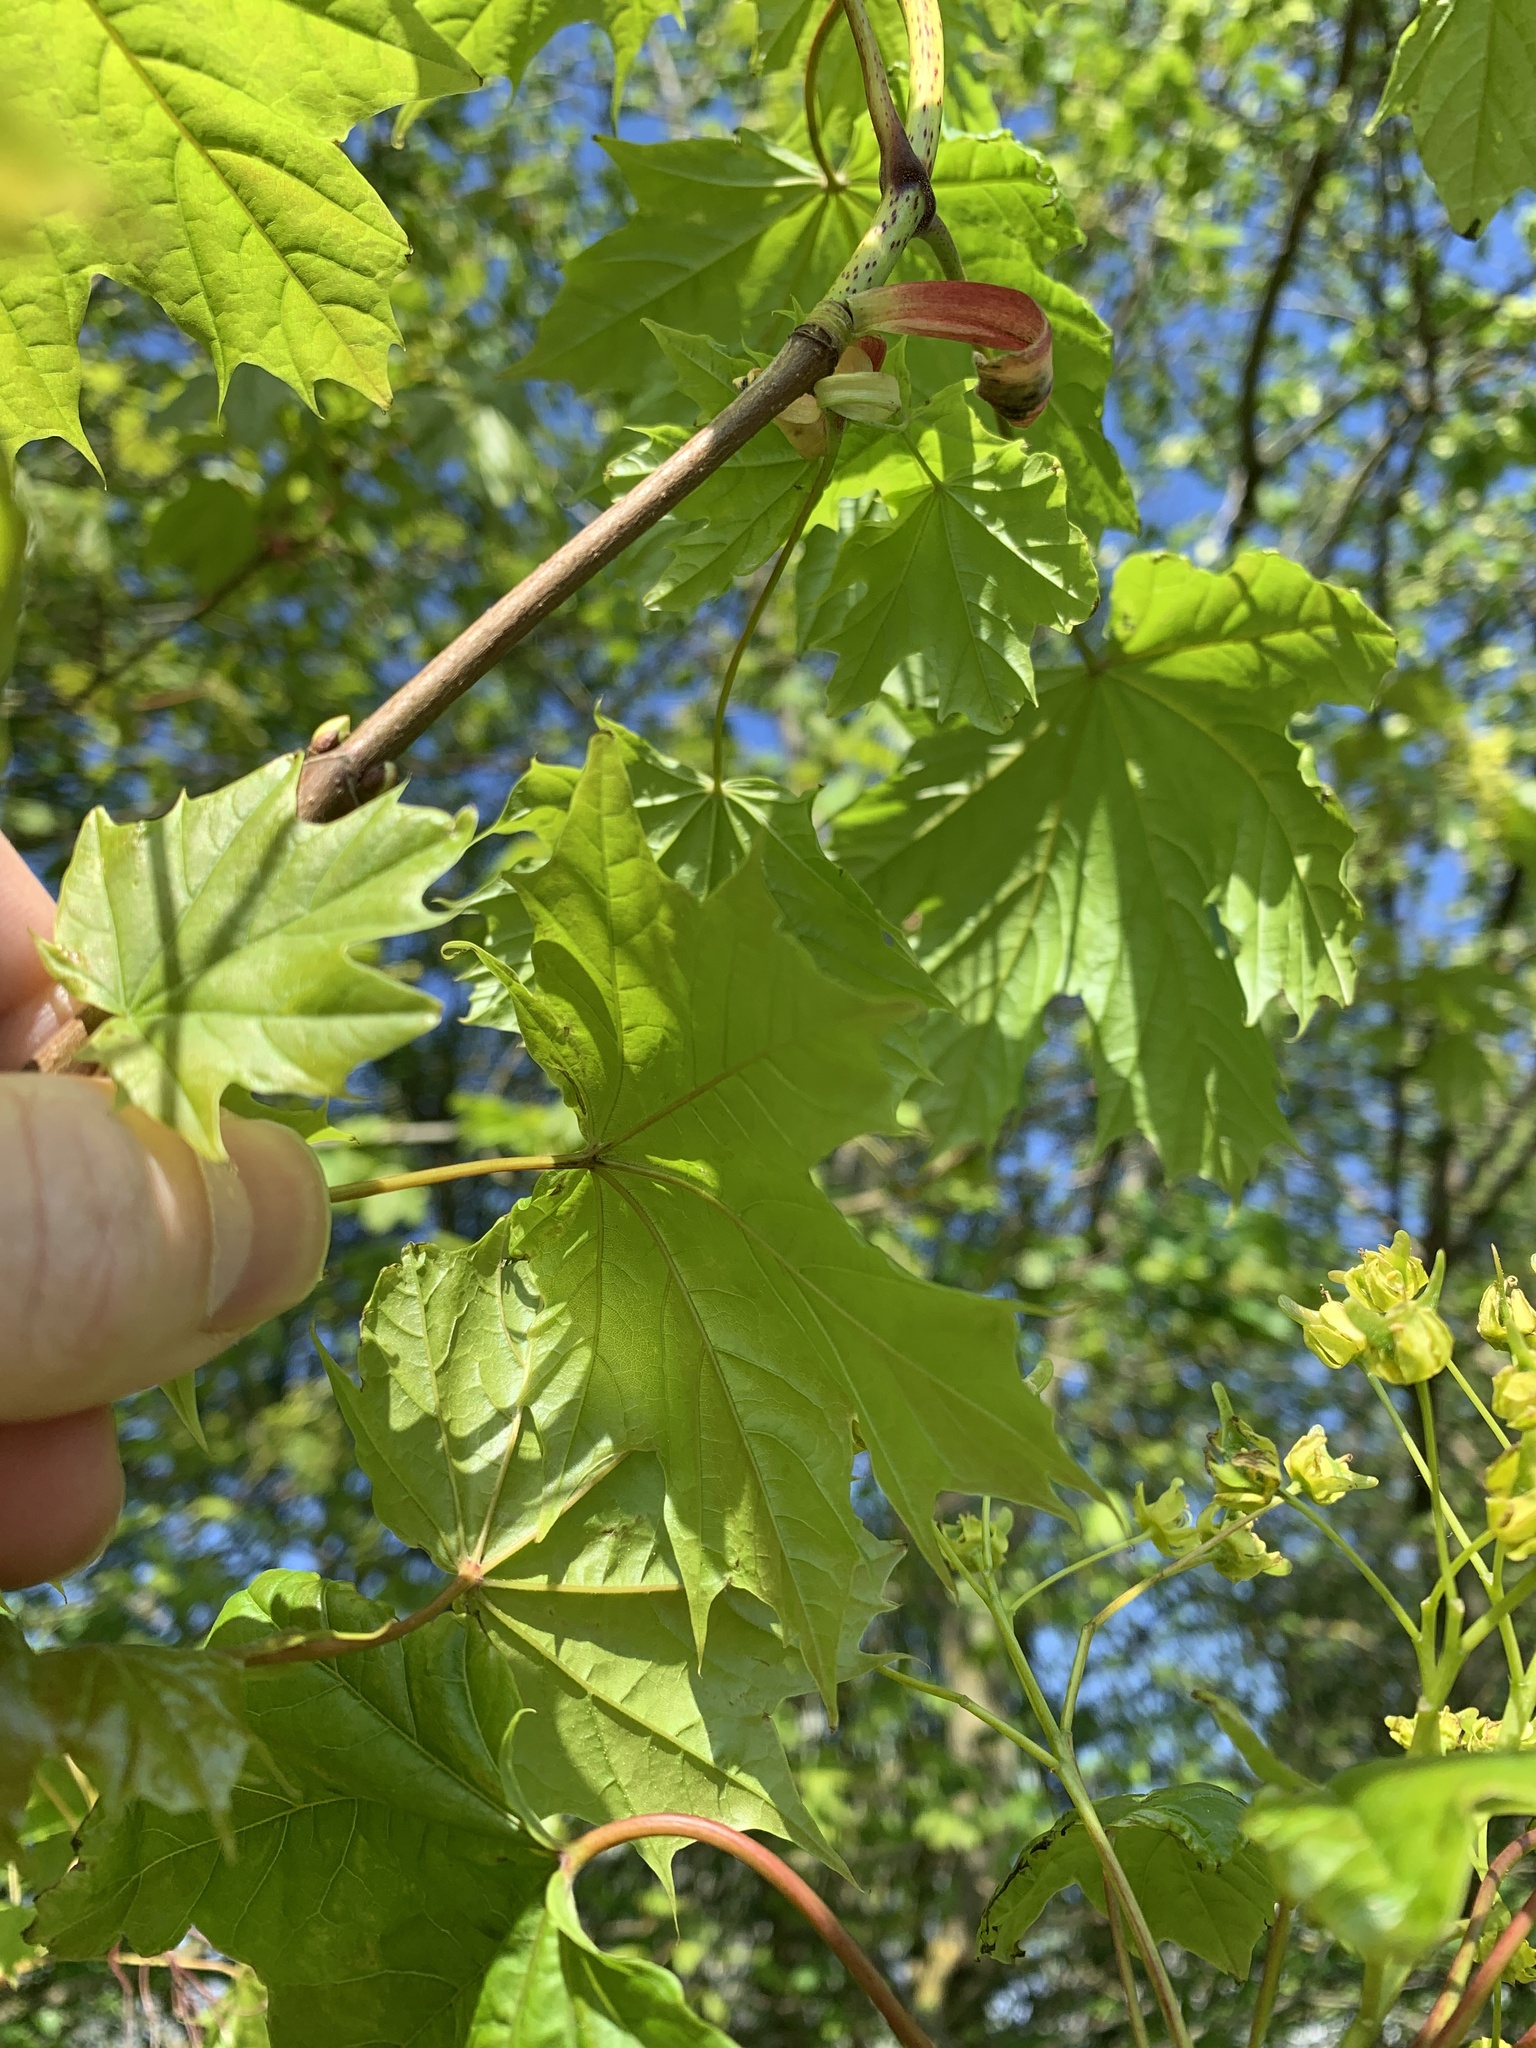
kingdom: Plantae
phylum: Tracheophyta
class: Magnoliopsida
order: Sapindales
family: Sapindaceae
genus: Acer
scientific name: Acer platanoides
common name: Norway maple
